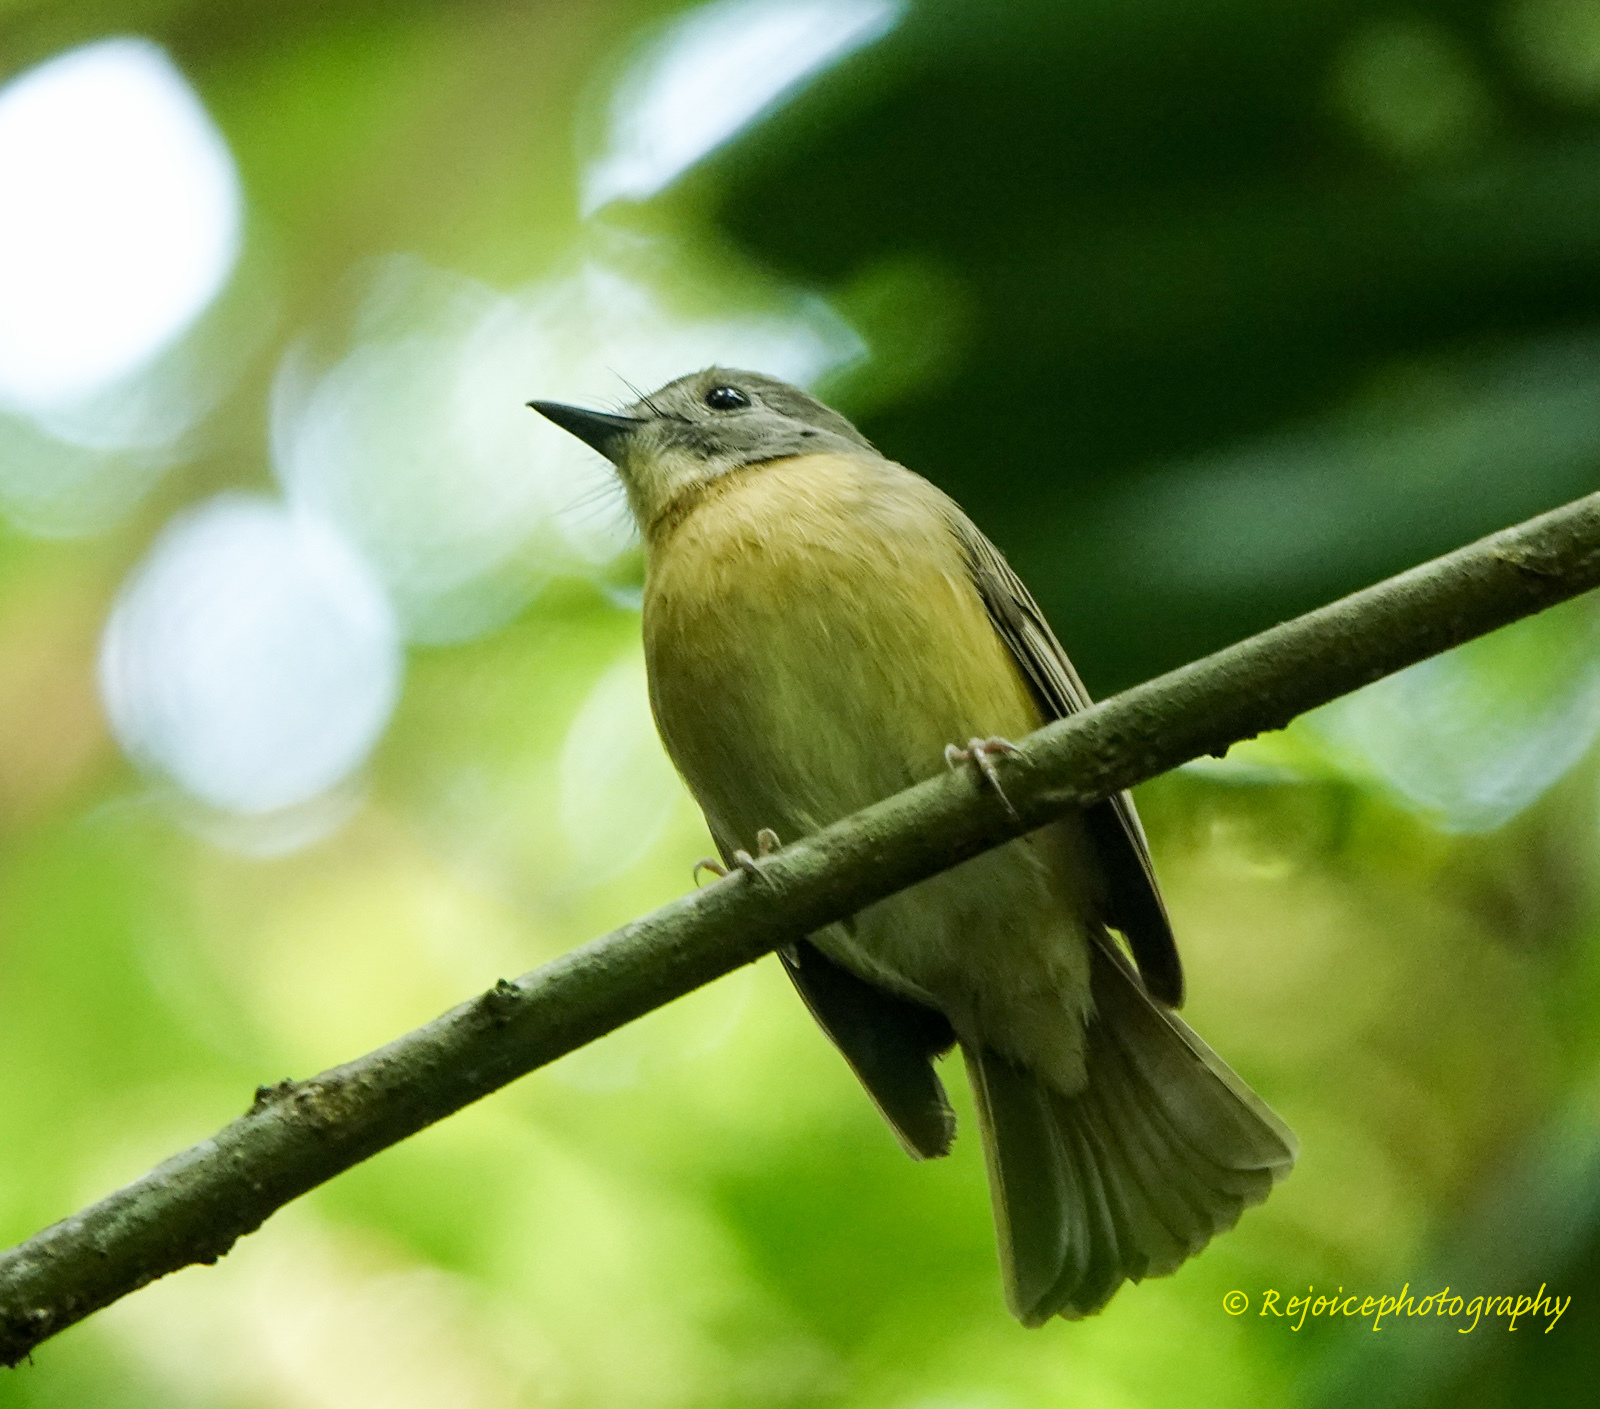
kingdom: Animalia
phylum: Chordata
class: Aves
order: Passeriformes
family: Muscicapidae
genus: Cyornis
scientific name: Cyornis poliogenys
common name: Pale-chinned blue flycatcher
